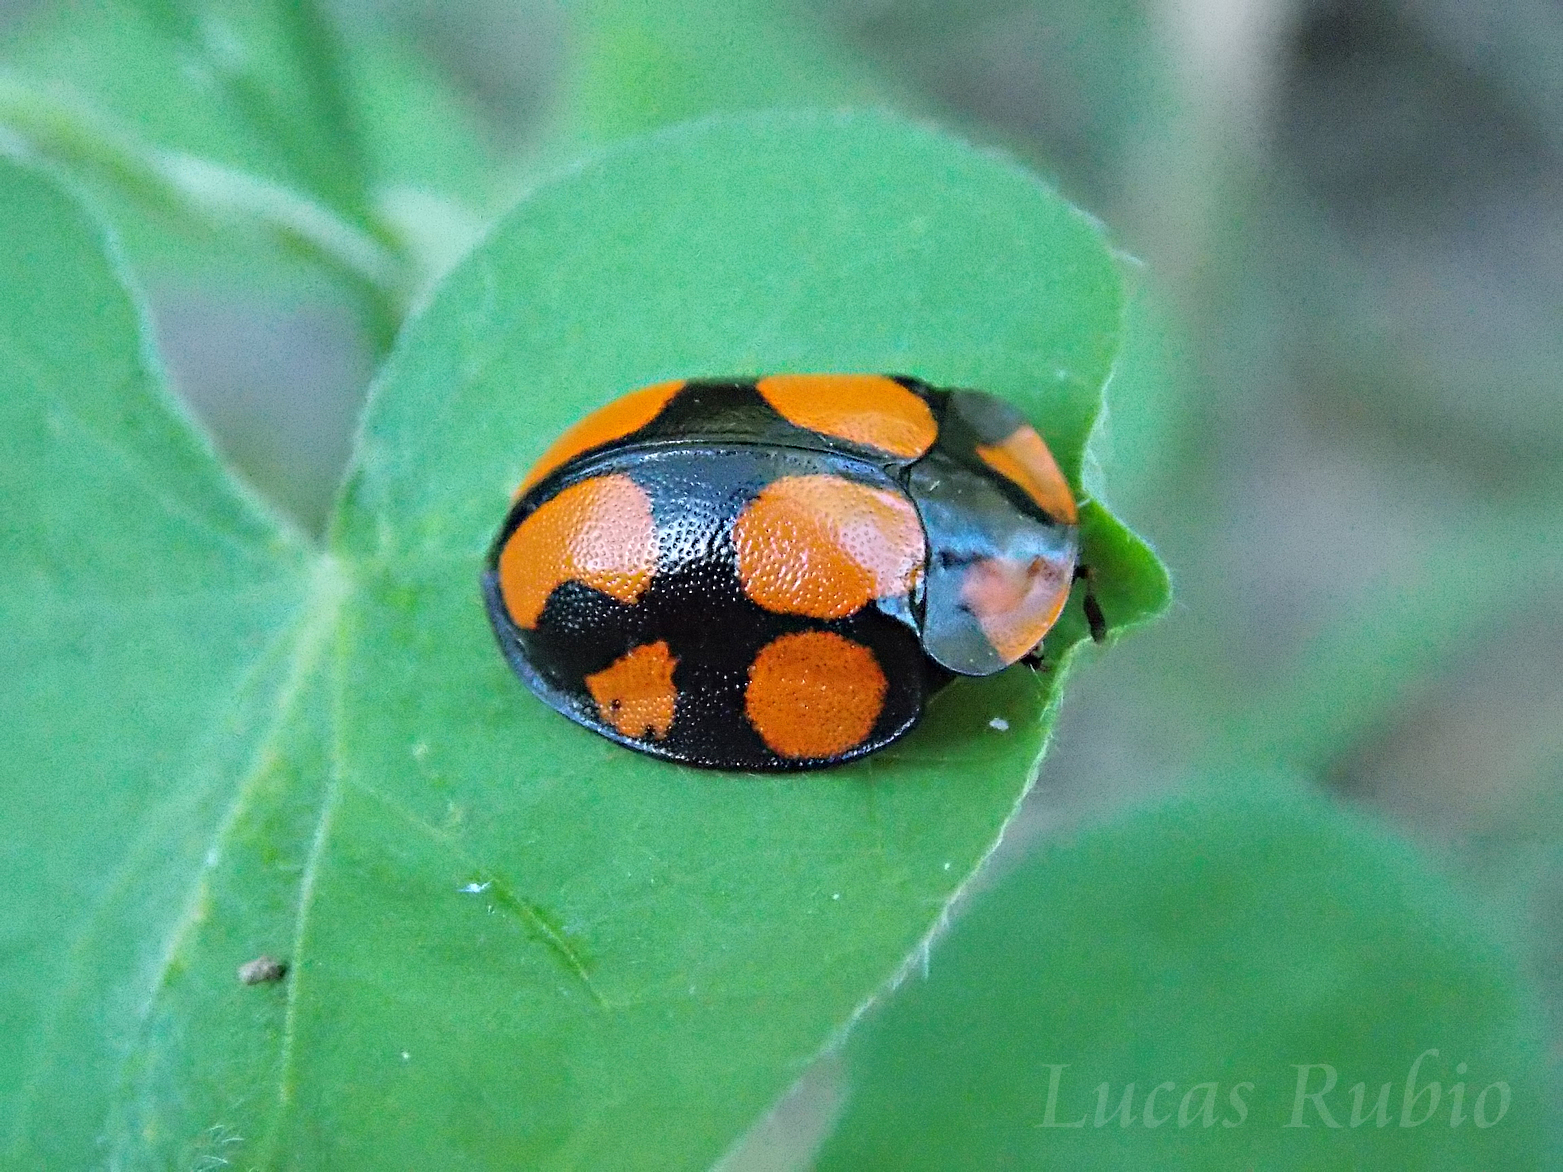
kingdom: Animalia
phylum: Arthropoda
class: Insecta
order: Coleoptera
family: Chrysomelidae
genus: Botanochara
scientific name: Botanochara octoplagiata
